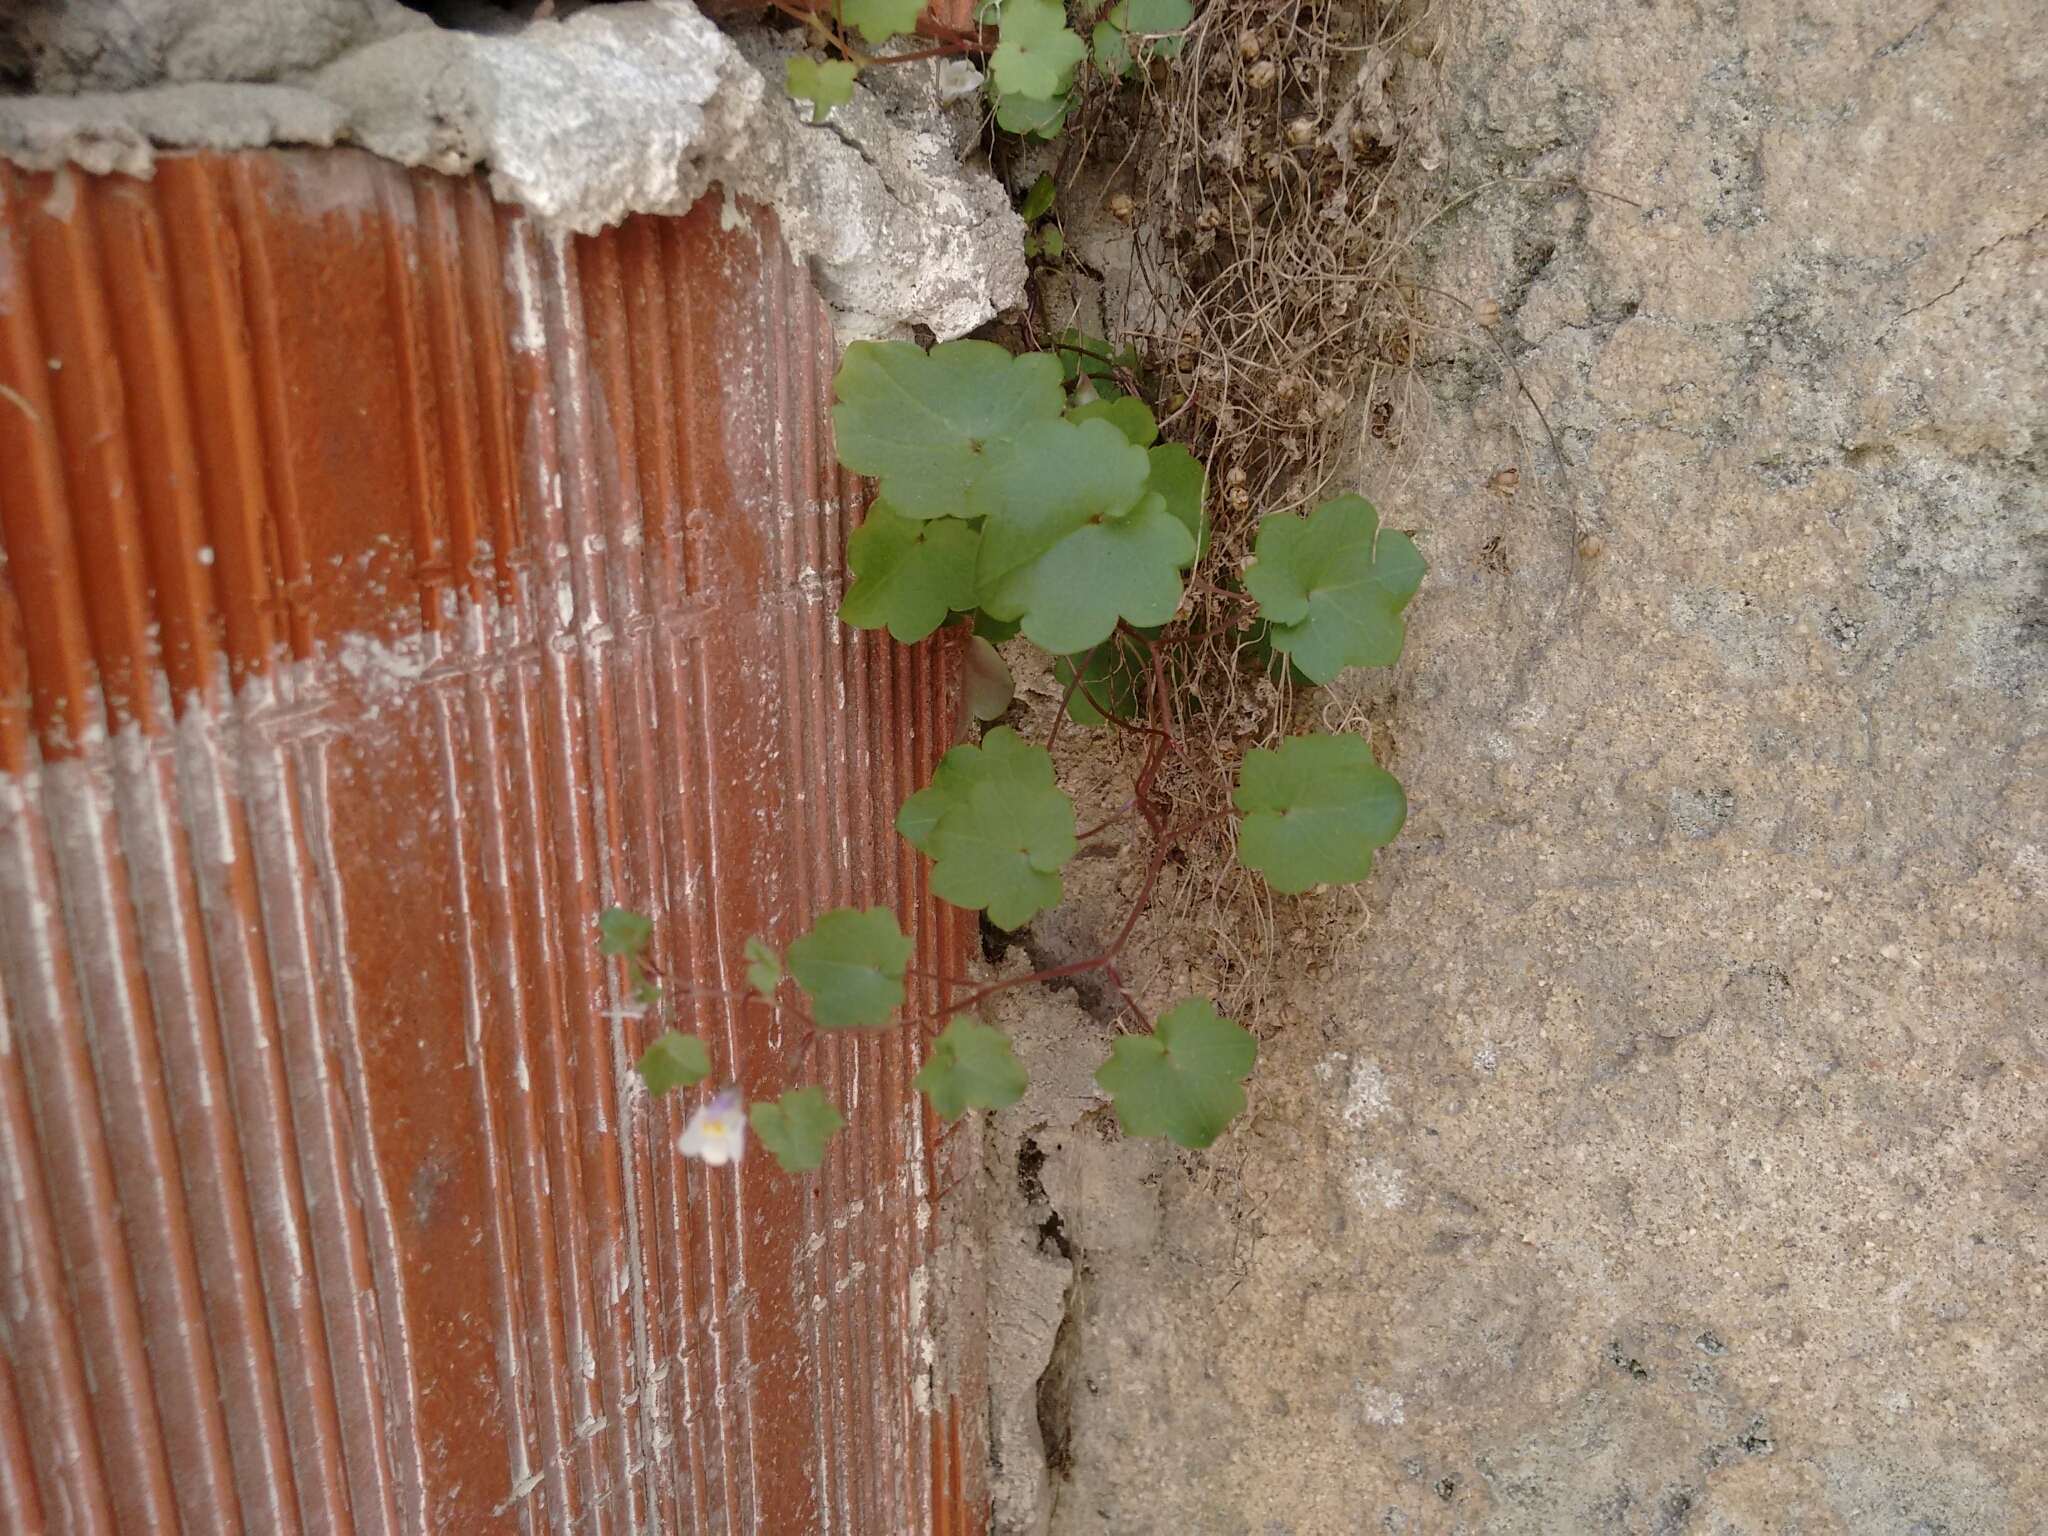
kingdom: Plantae
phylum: Tracheophyta
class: Magnoliopsida
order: Lamiales
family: Plantaginaceae
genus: Cymbalaria
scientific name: Cymbalaria muralis
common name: Ivy-leaved toadflax
